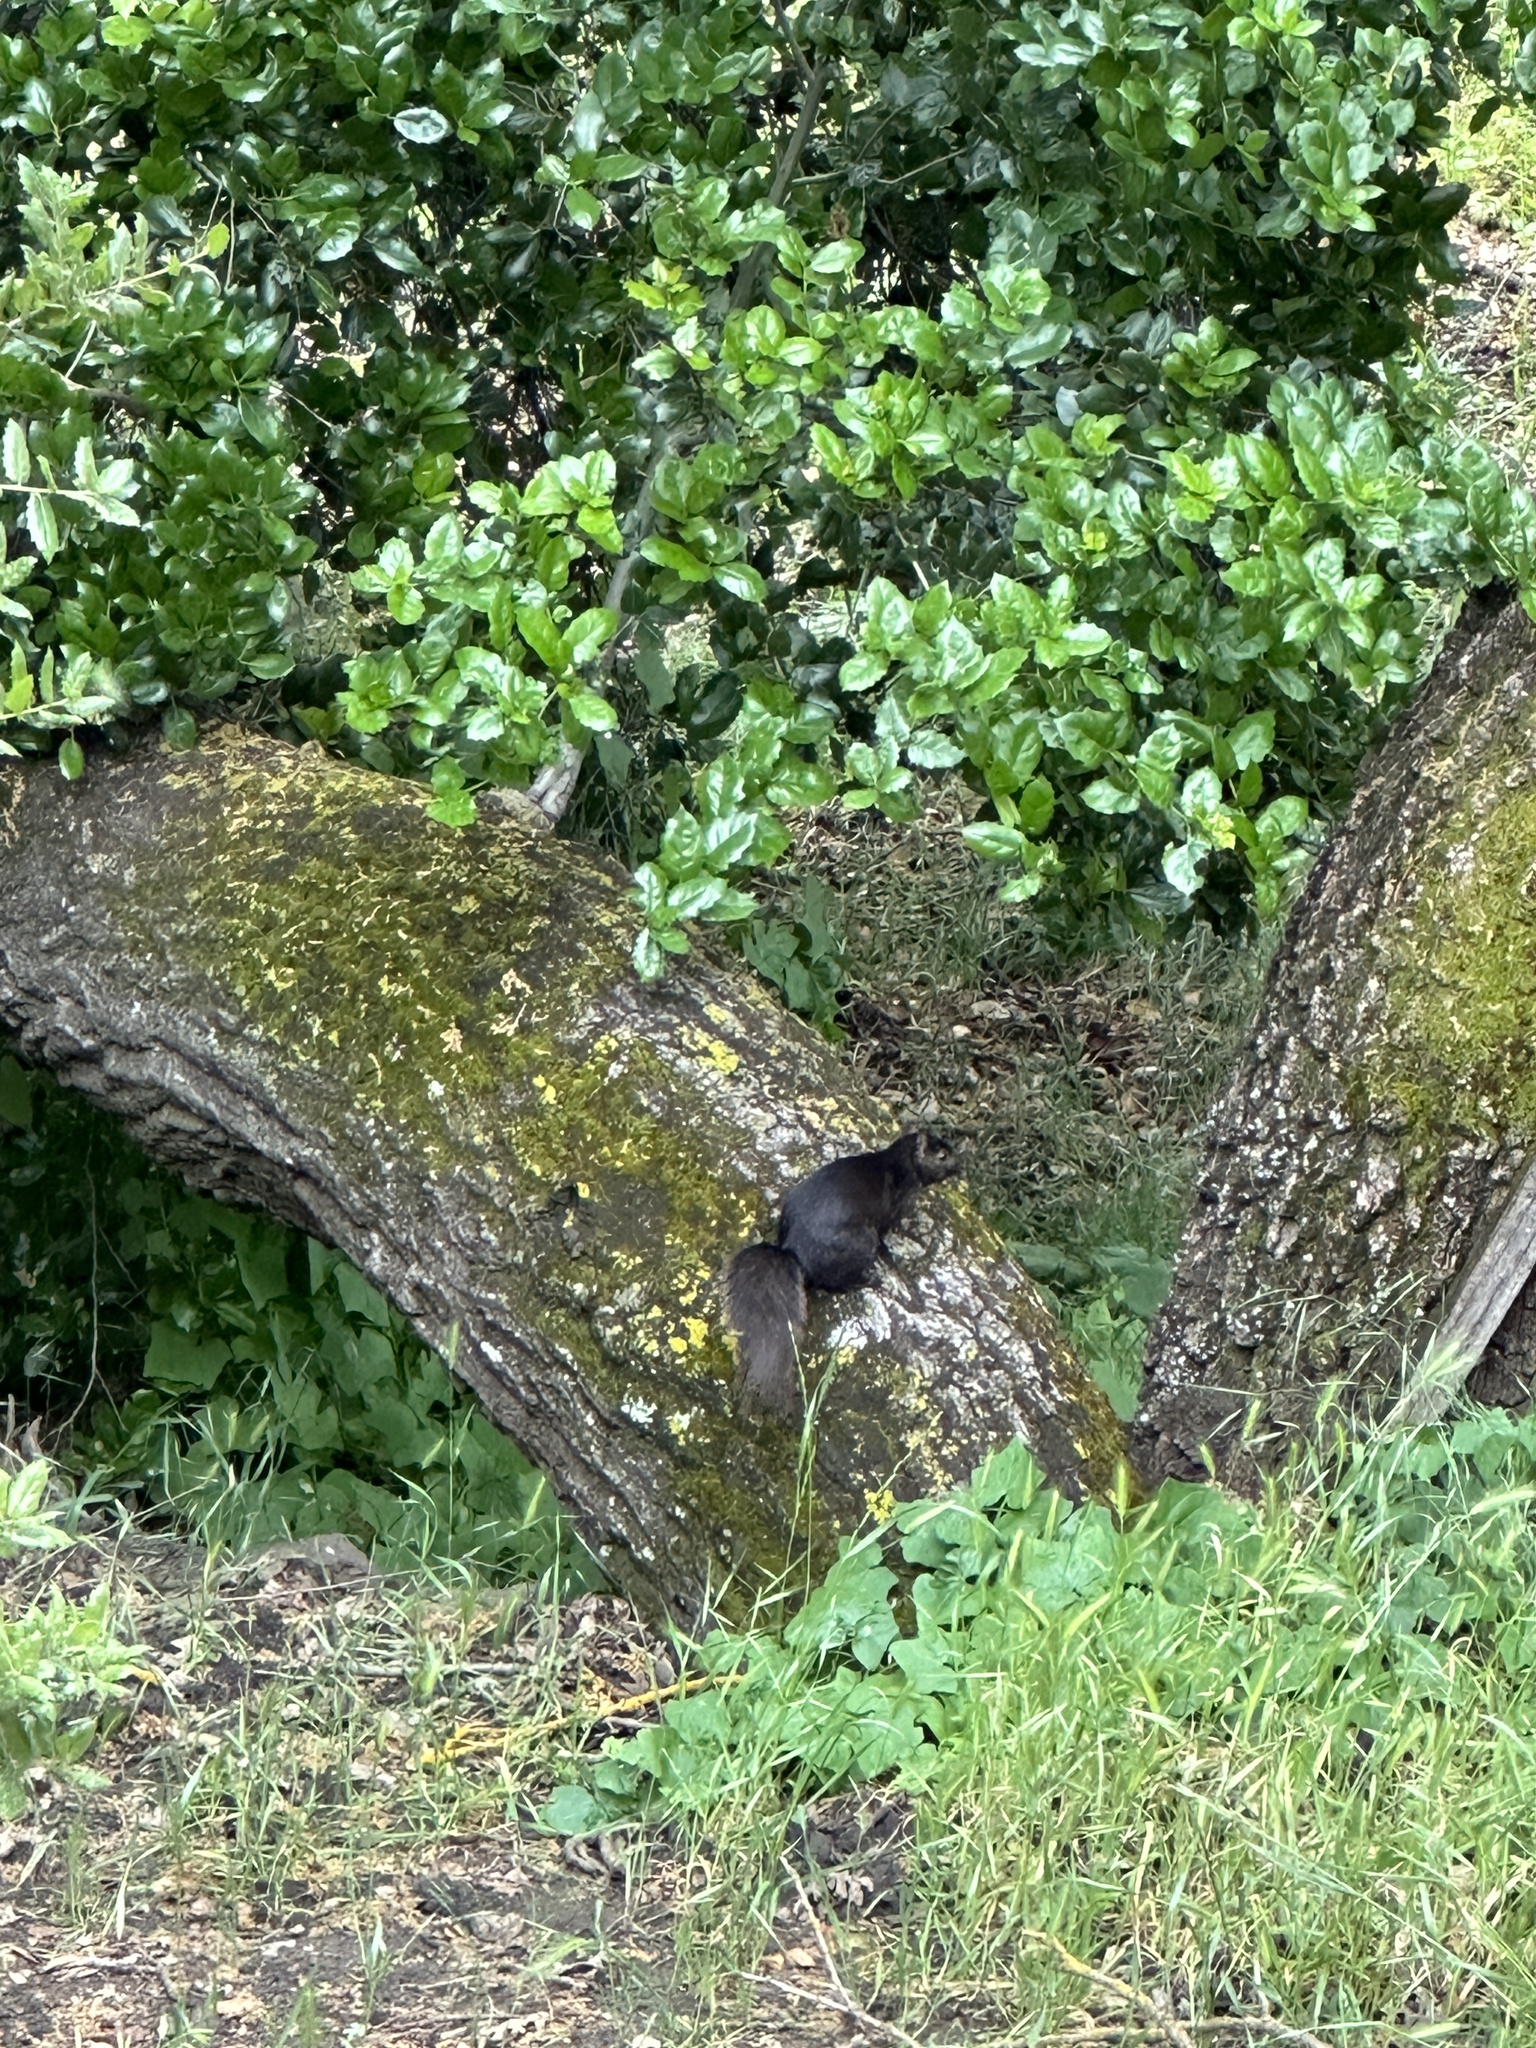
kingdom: Animalia
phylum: Chordata
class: Mammalia
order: Rodentia
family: Sciuridae
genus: Sciurus
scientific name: Sciurus carolinensis
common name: Eastern gray squirrel
